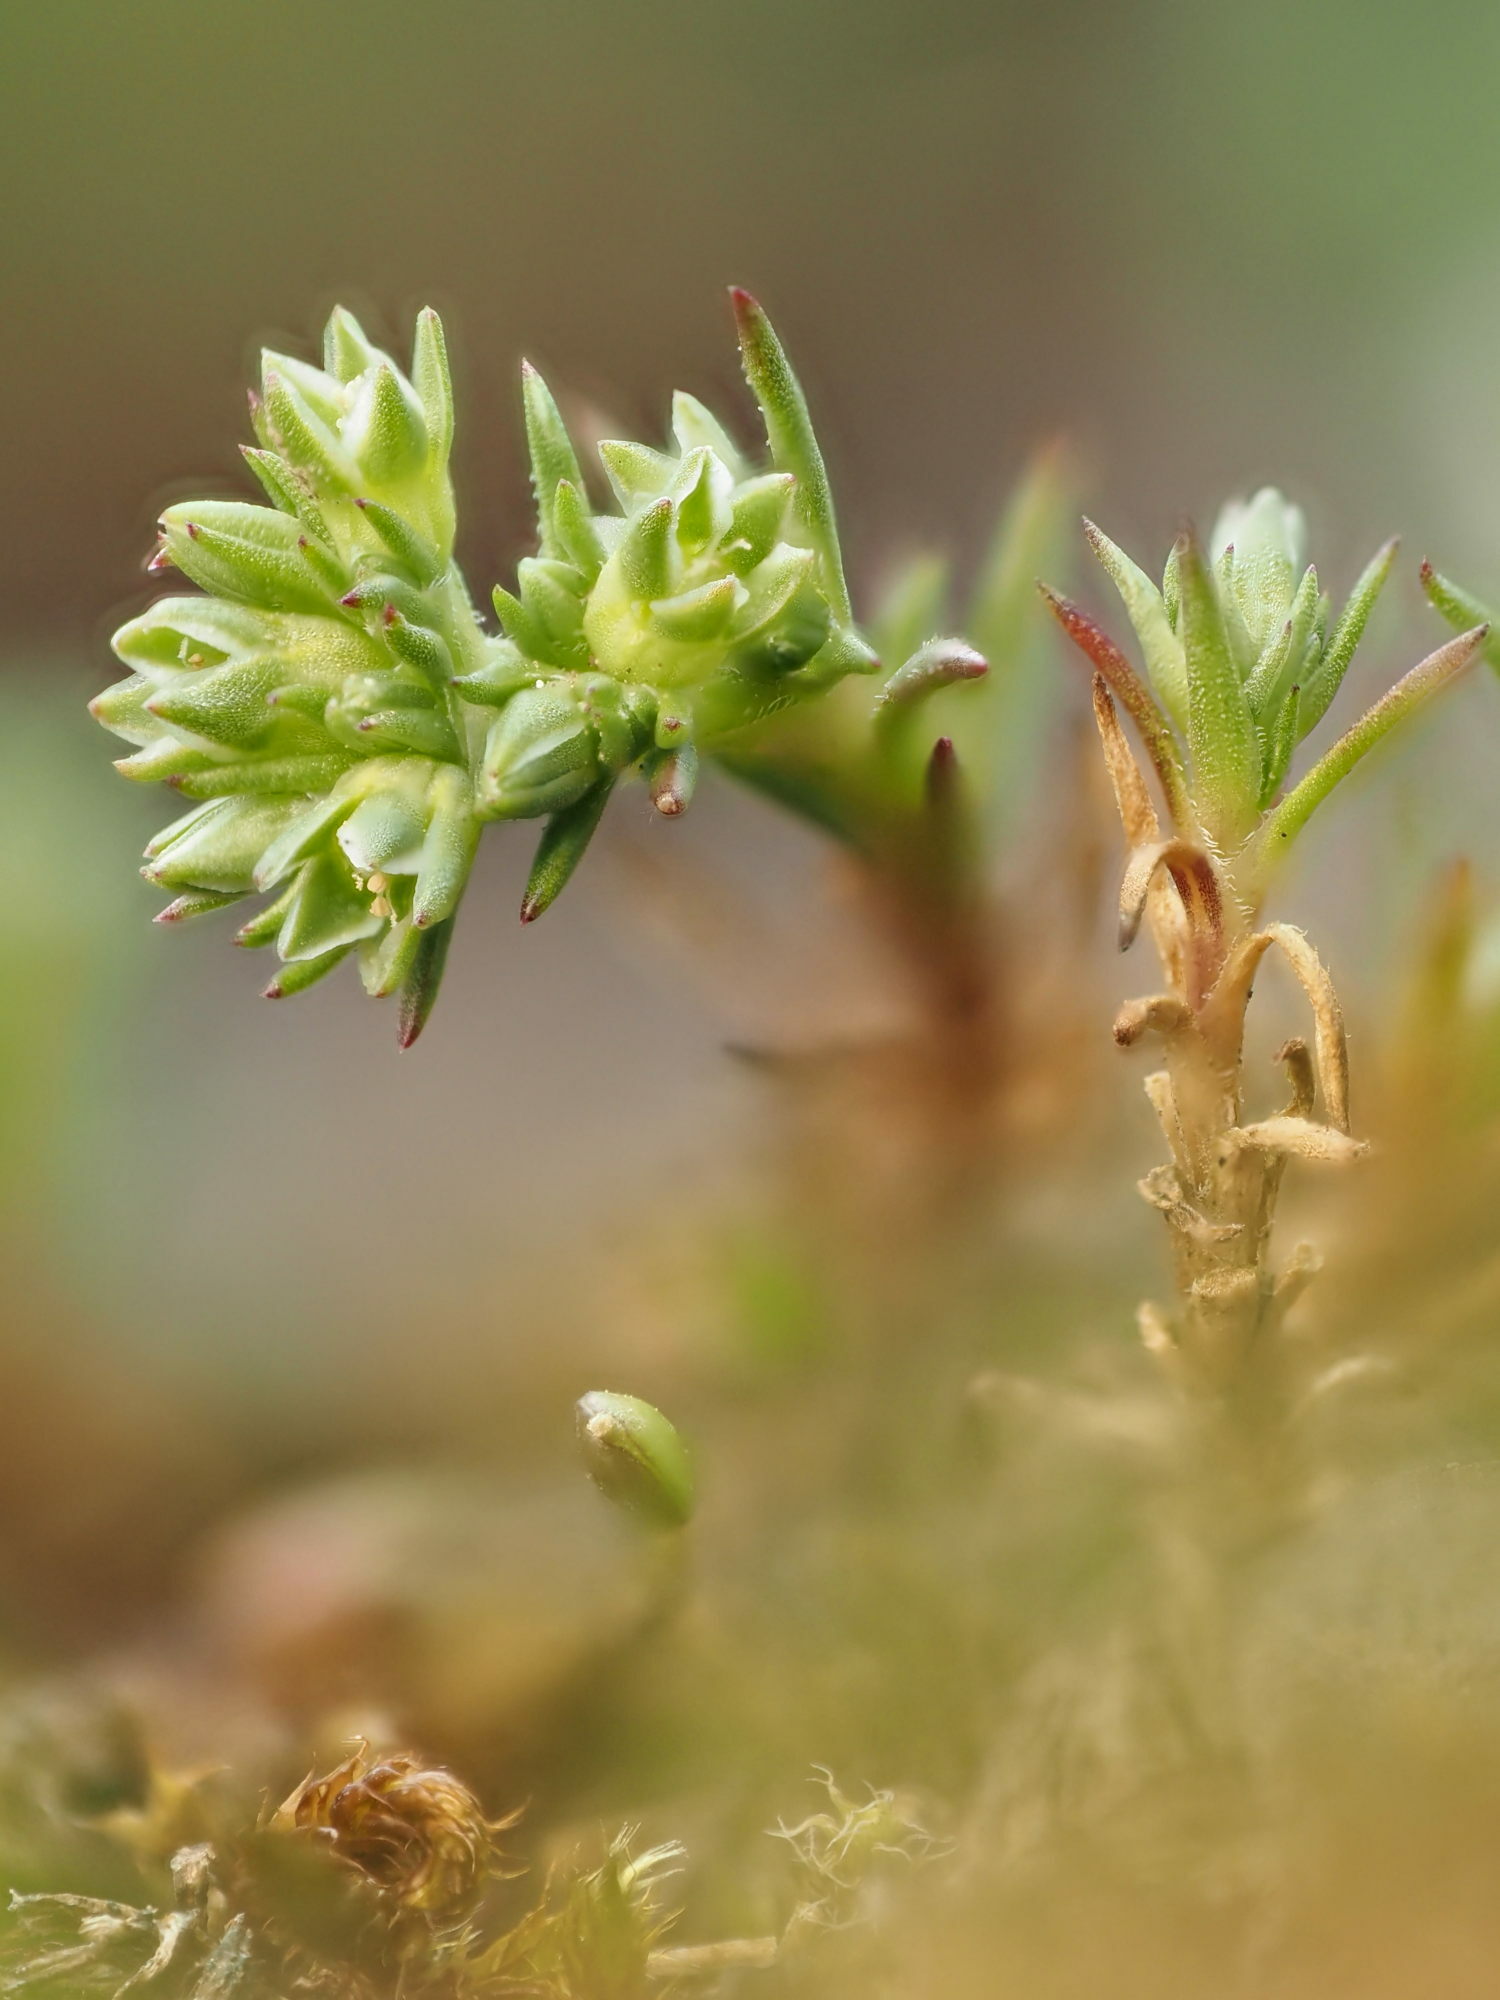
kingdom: Plantae
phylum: Tracheophyta
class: Magnoliopsida
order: Caryophyllales
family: Caryophyllaceae
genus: Scleranthus
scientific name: Scleranthus perennis
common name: Perennial knawel
